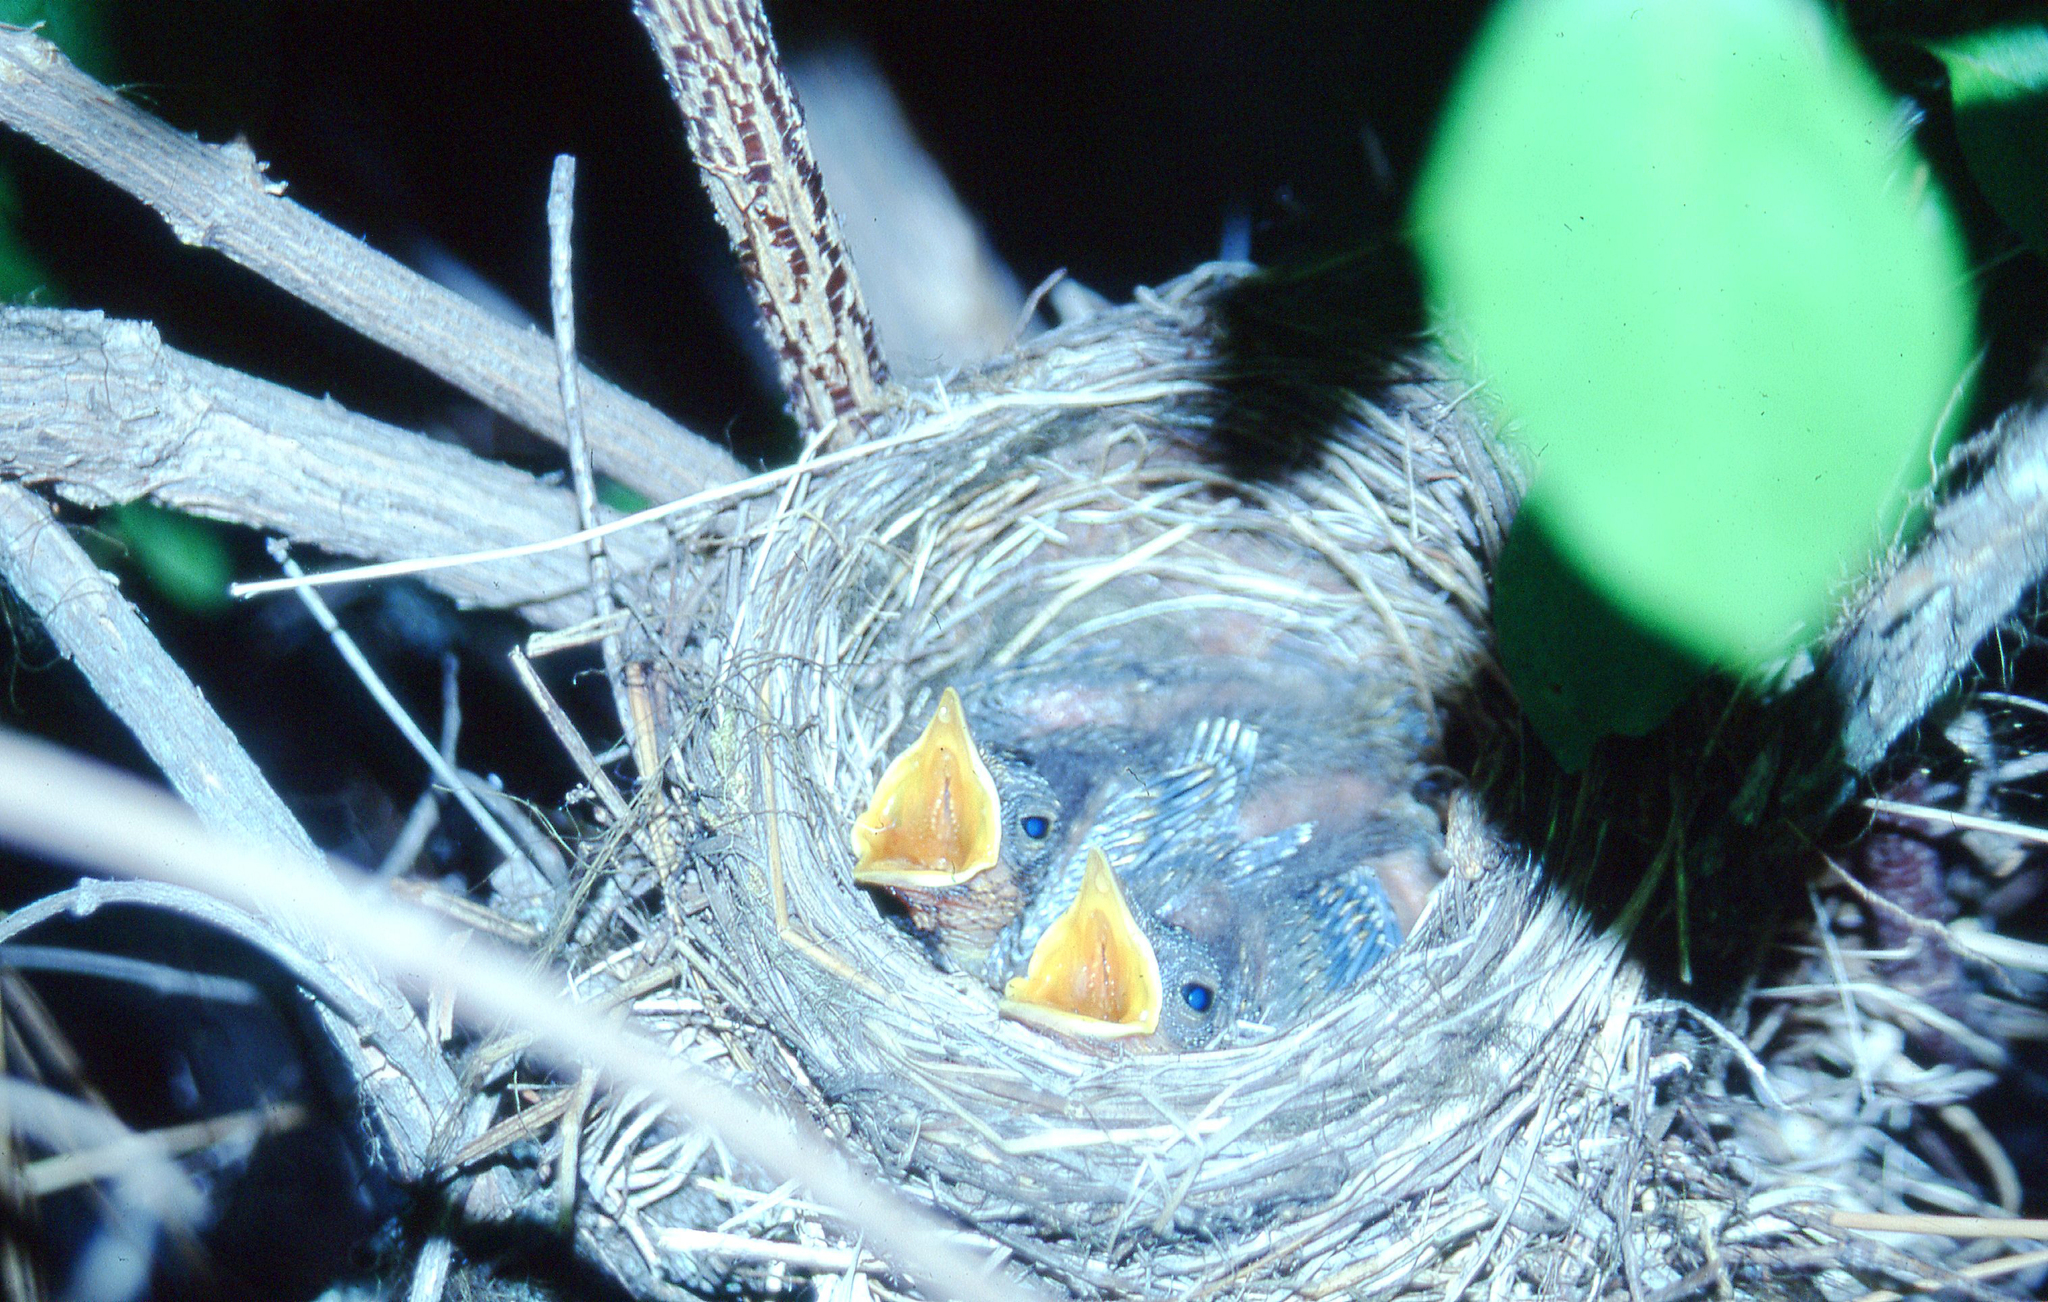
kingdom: Animalia
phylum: Chordata
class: Aves
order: Passeriformes
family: Turdidae
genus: Catharus
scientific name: Catharus ustulatus
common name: Swainson's thrush
